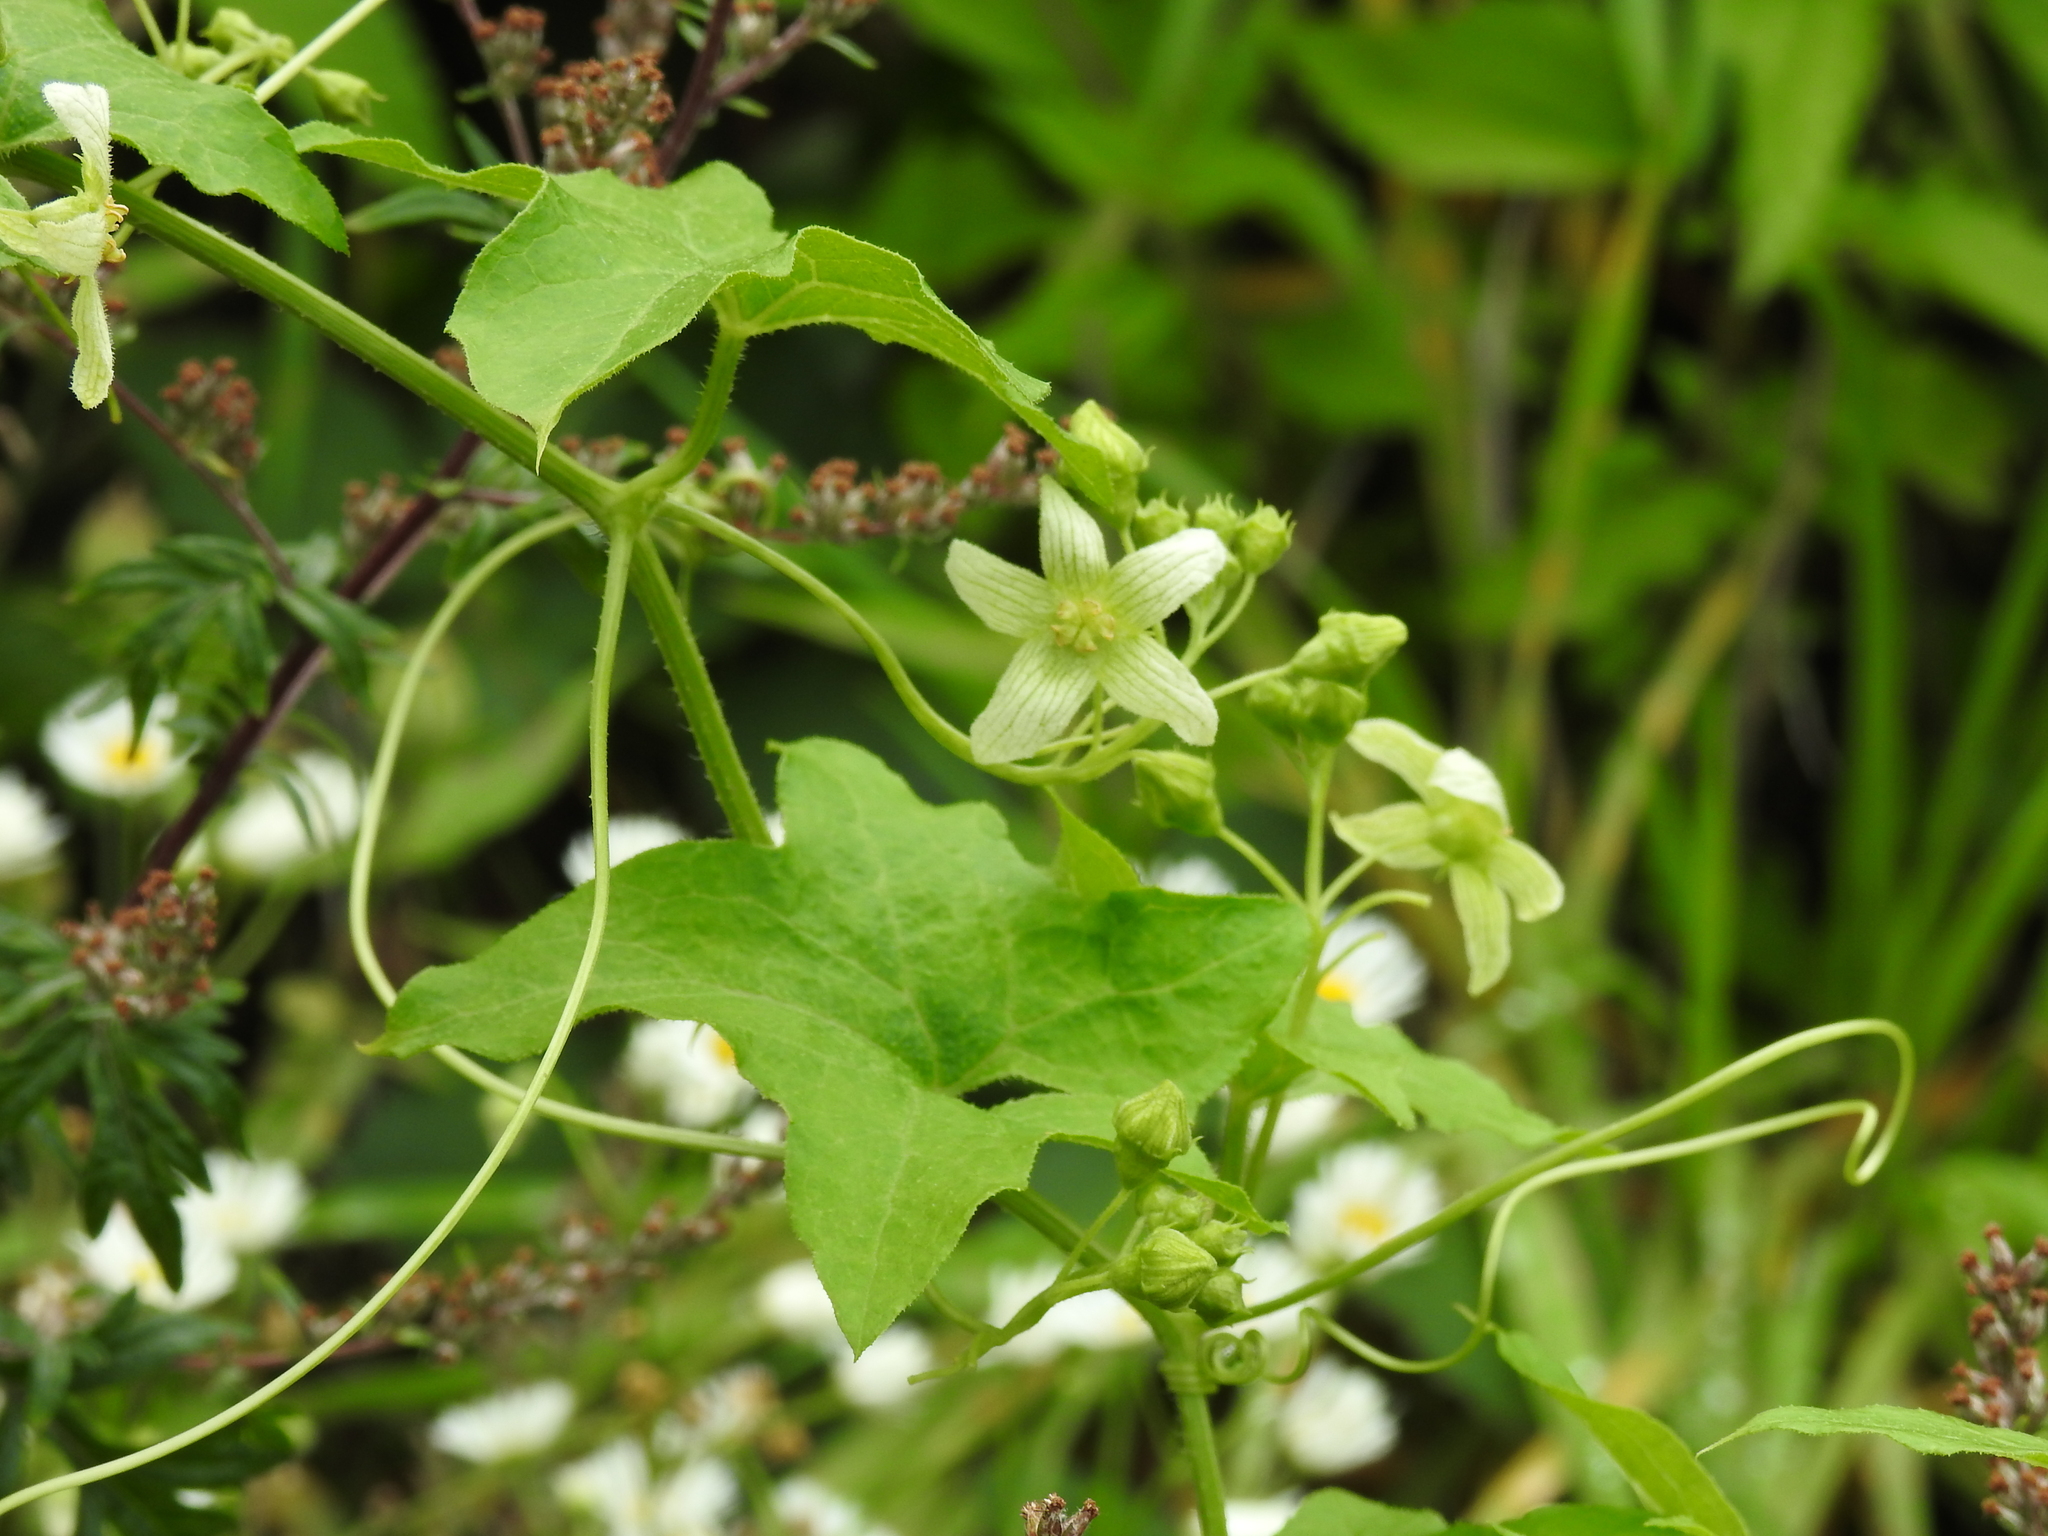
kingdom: Plantae
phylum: Tracheophyta
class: Magnoliopsida
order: Cucurbitales
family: Cucurbitaceae
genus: Bryonia
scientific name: Bryonia cretica
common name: Cretan bryony
